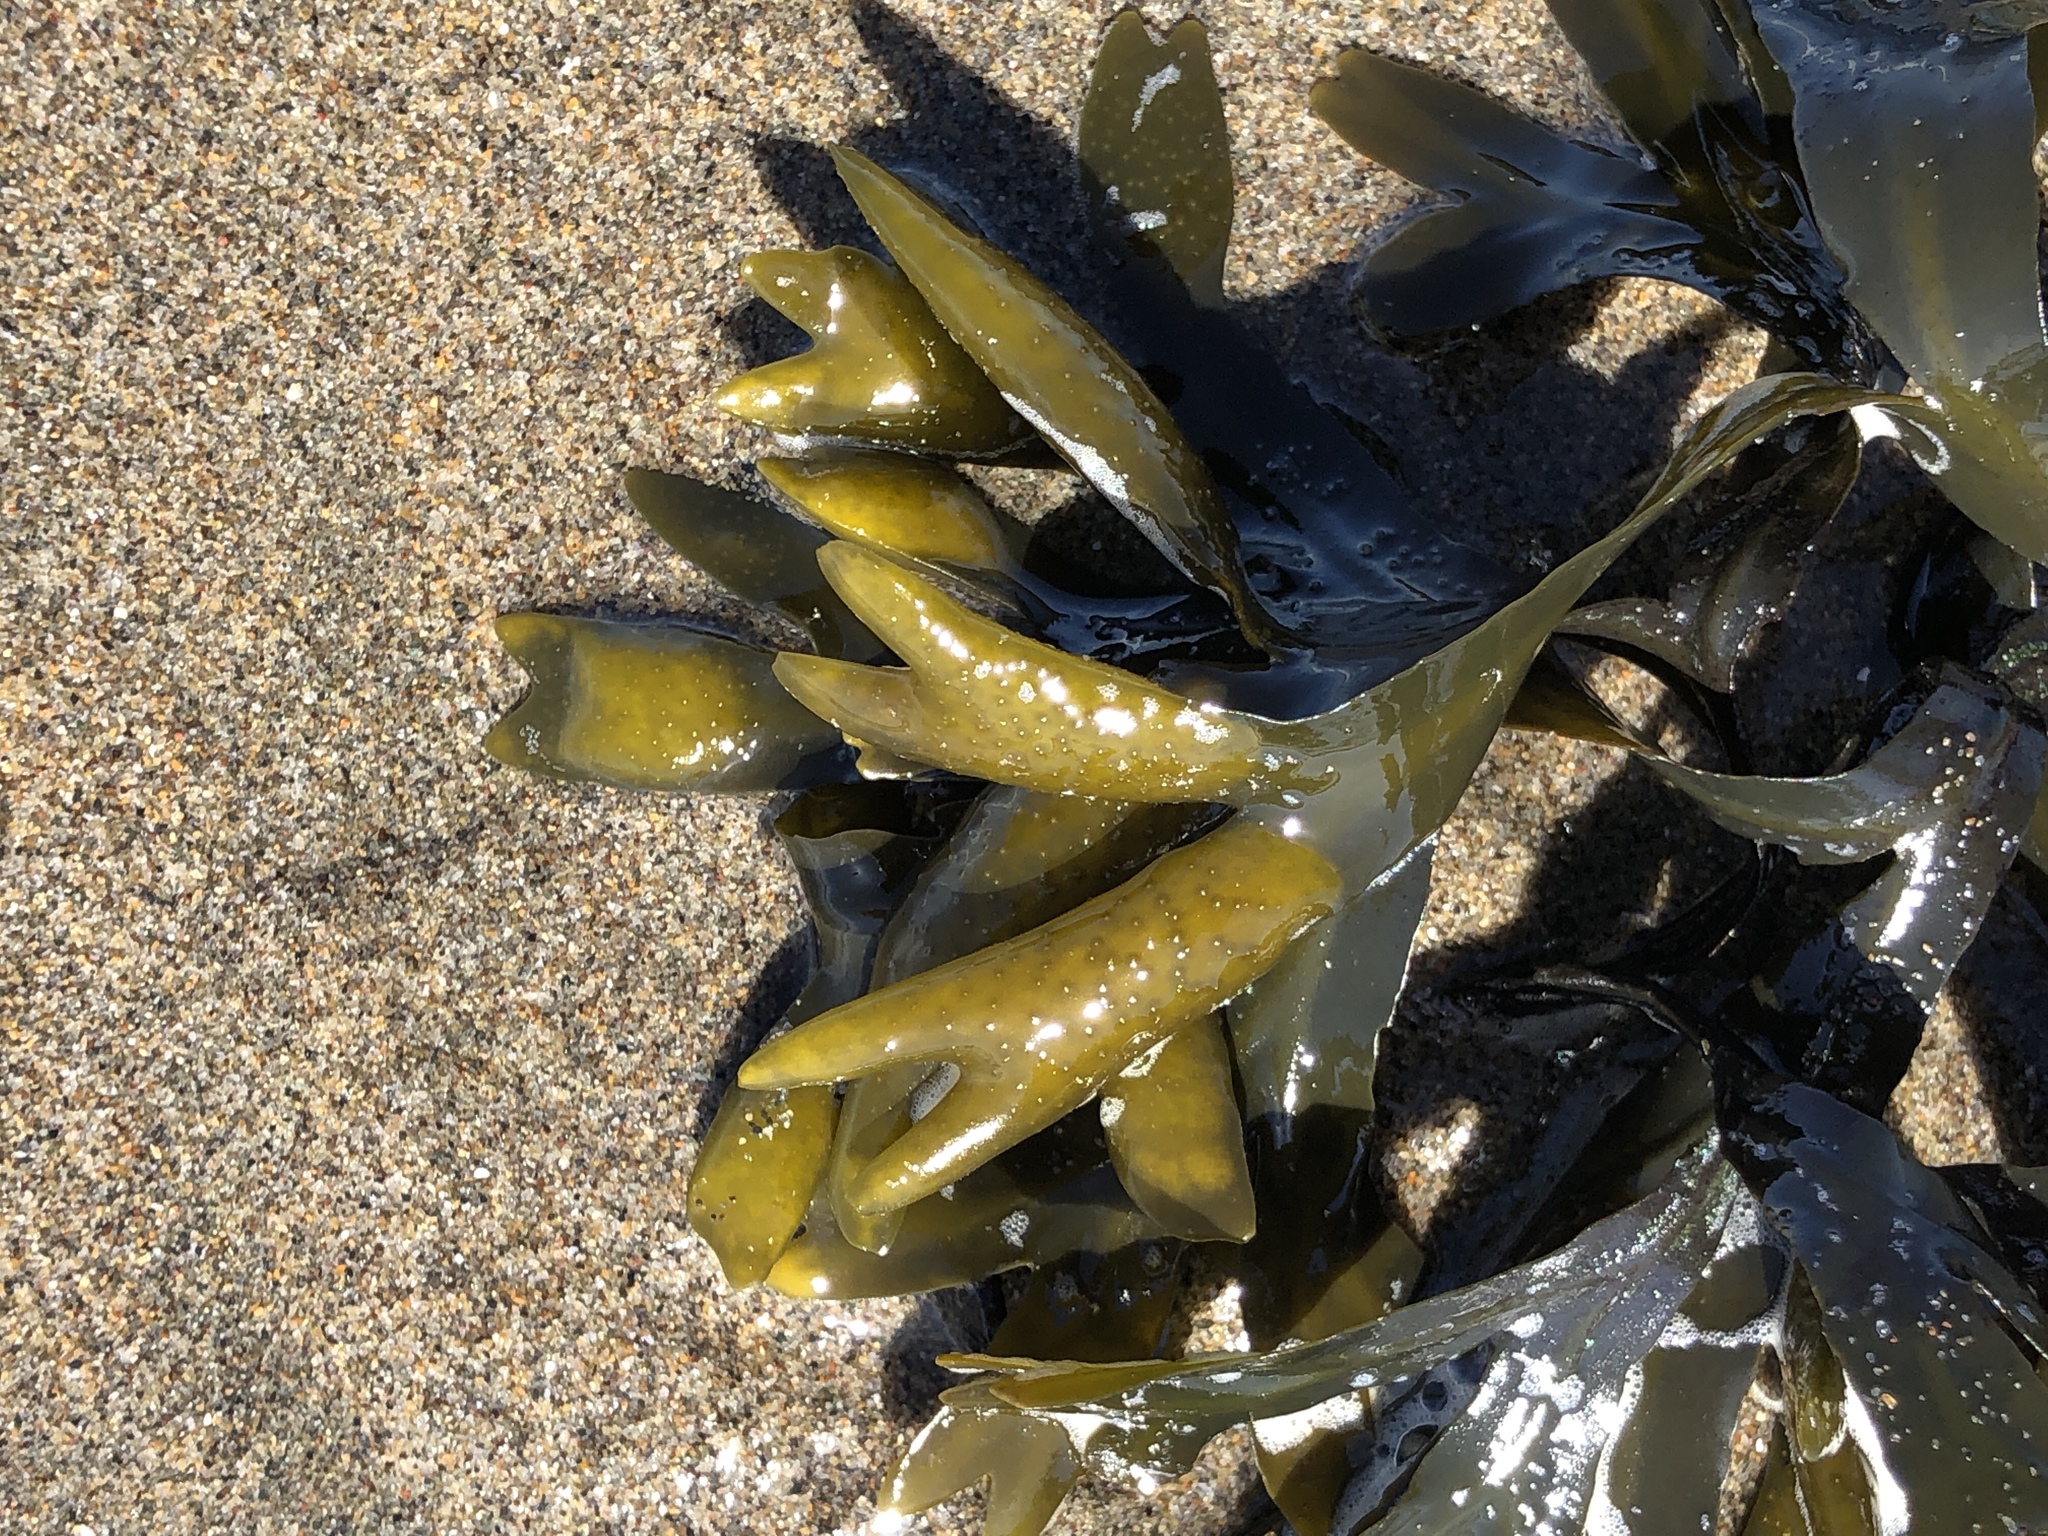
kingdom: Chromista
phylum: Ochrophyta
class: Phaeophyceae
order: Fucales
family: Fucaceae
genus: Fucus
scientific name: Fucus distichus
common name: Rockweed
